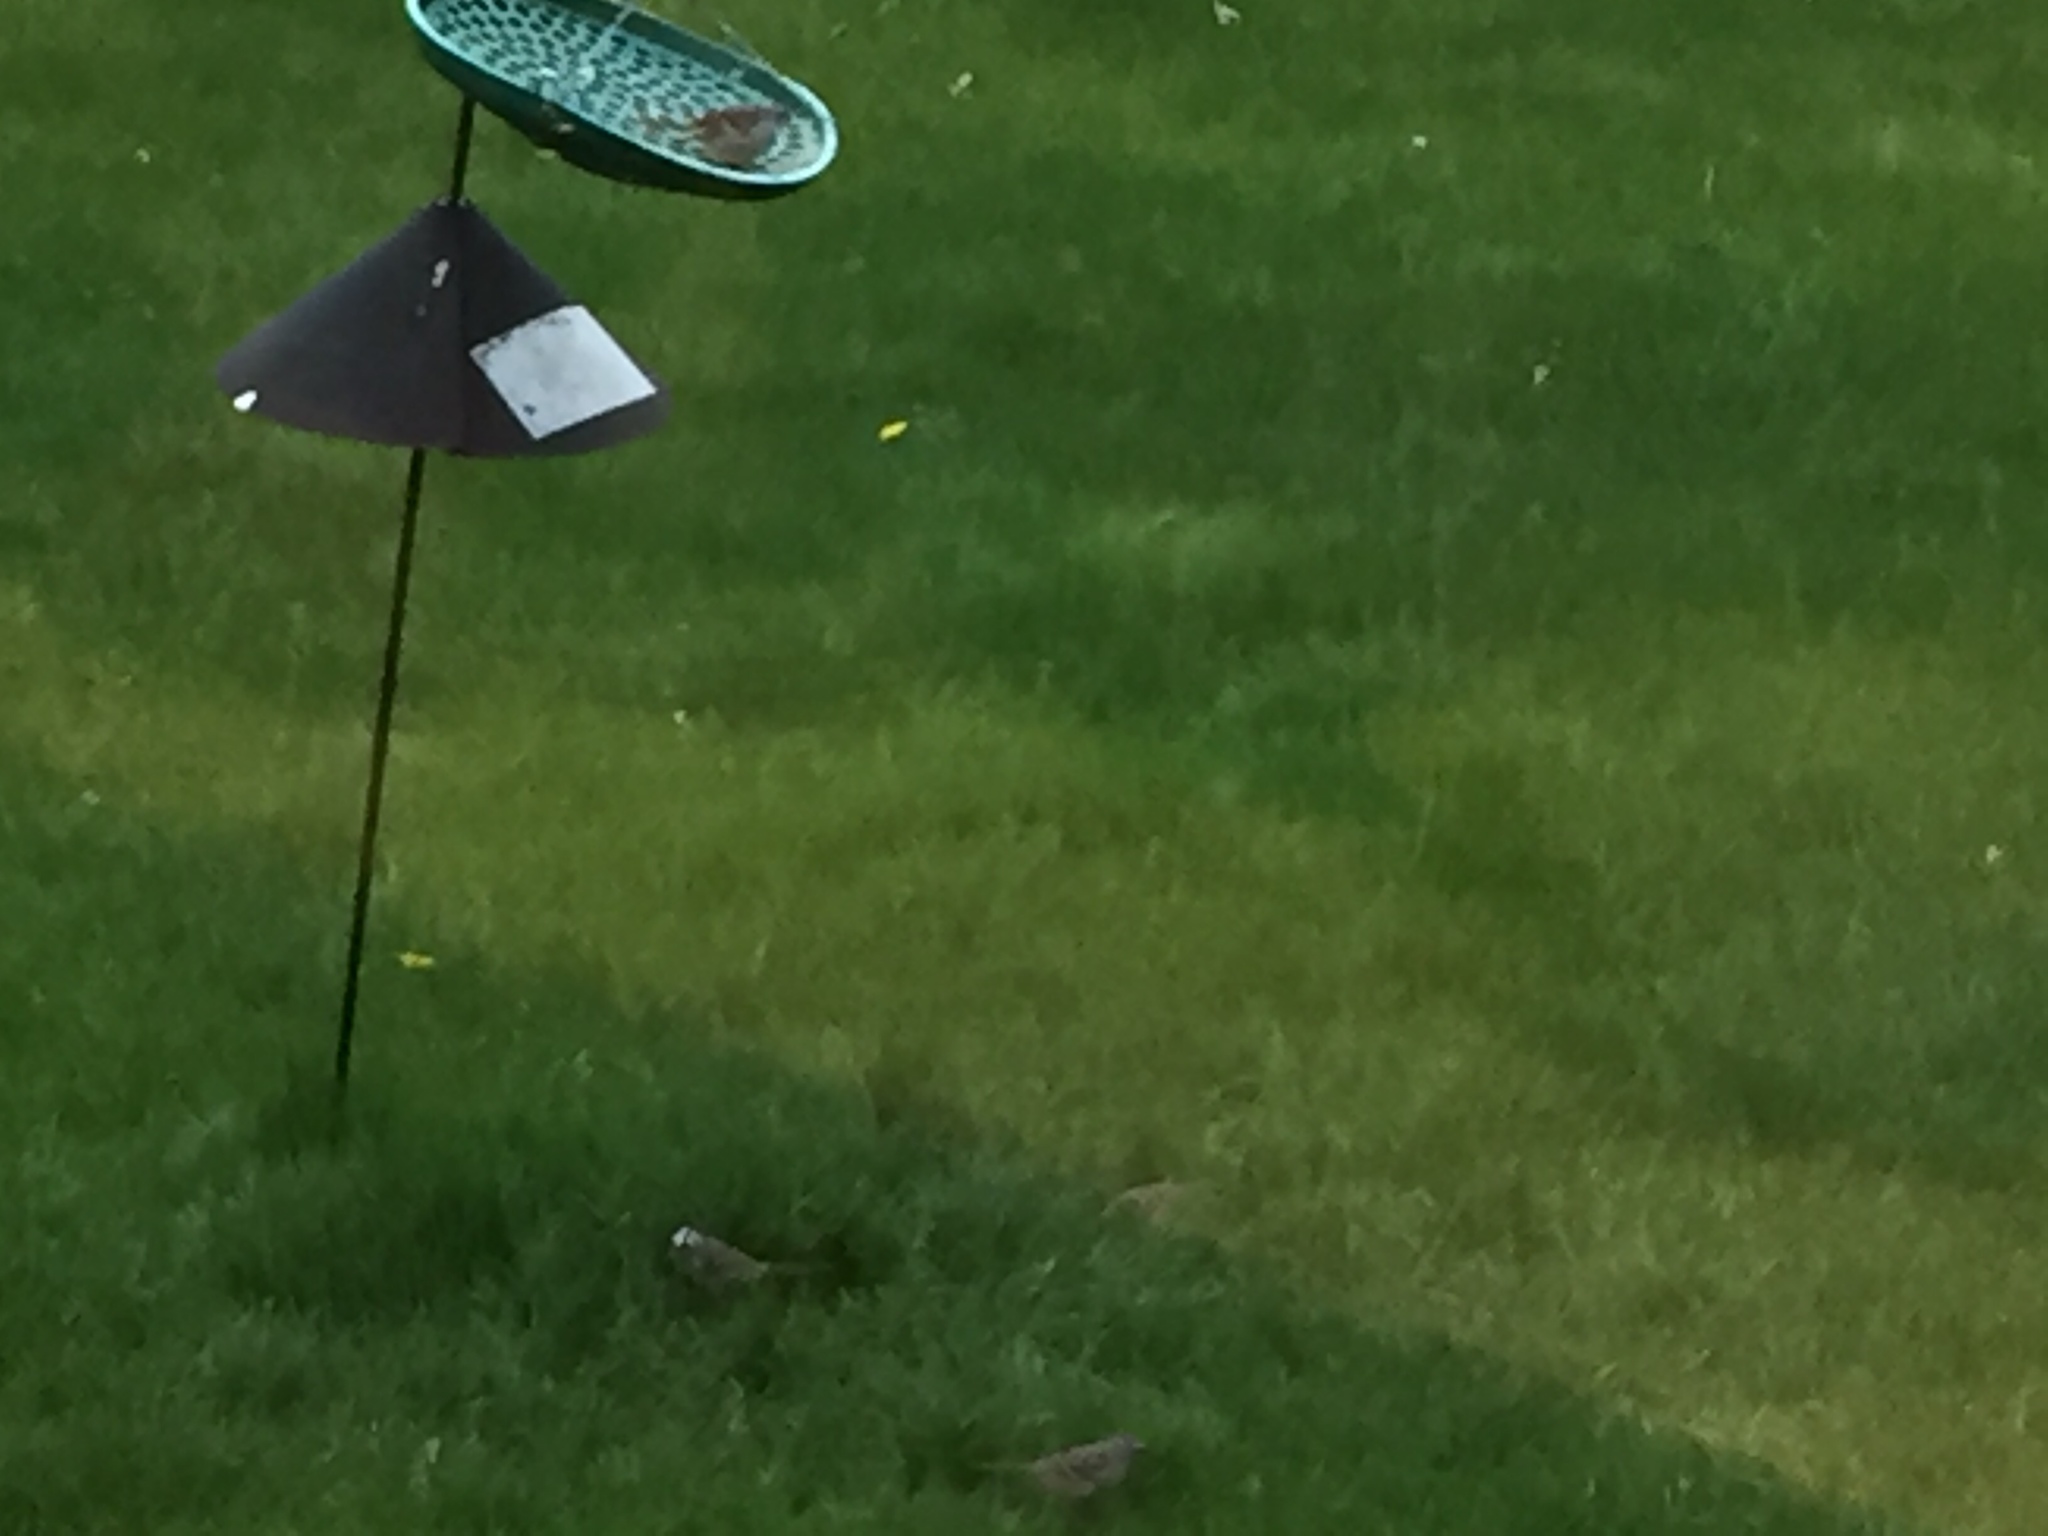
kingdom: Animalia
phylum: Chordata
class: Aves
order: Passeriformes
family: Passerellidae
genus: Zonotrichia
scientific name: Zonotrichia leucophrys
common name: White-crowned sparrow
